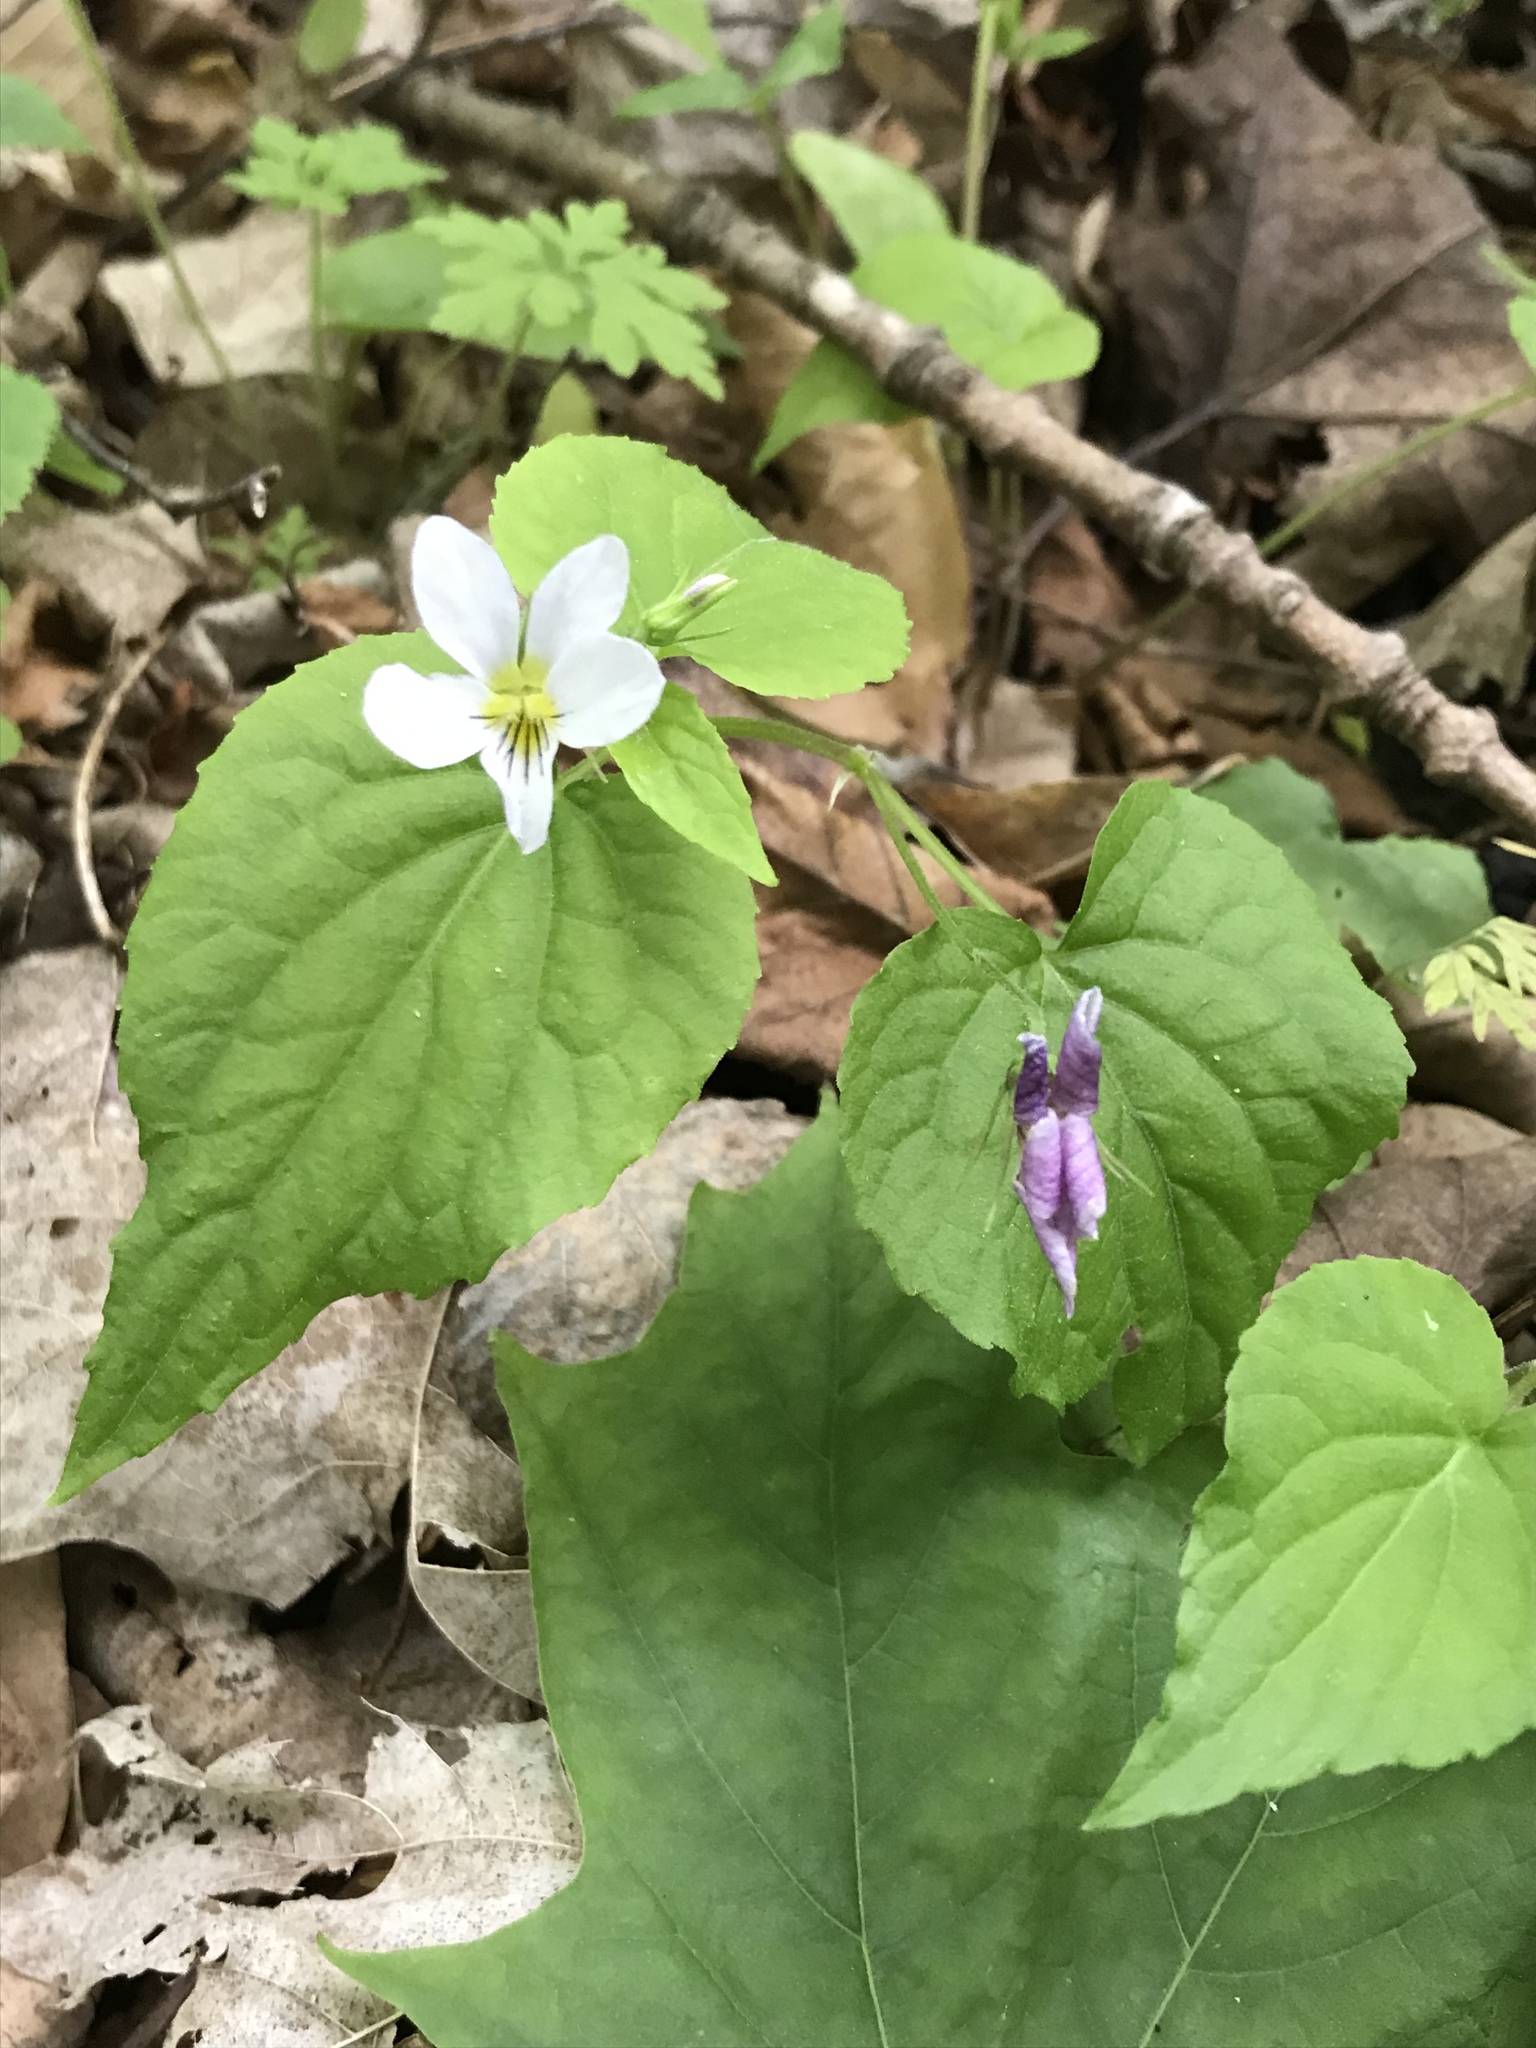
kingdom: Plantae
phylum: Tracheophyta
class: Magnoliopsida
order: Malpighiales
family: Violaceae
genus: Viola
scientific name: Viola canadensis
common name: Canada violet
